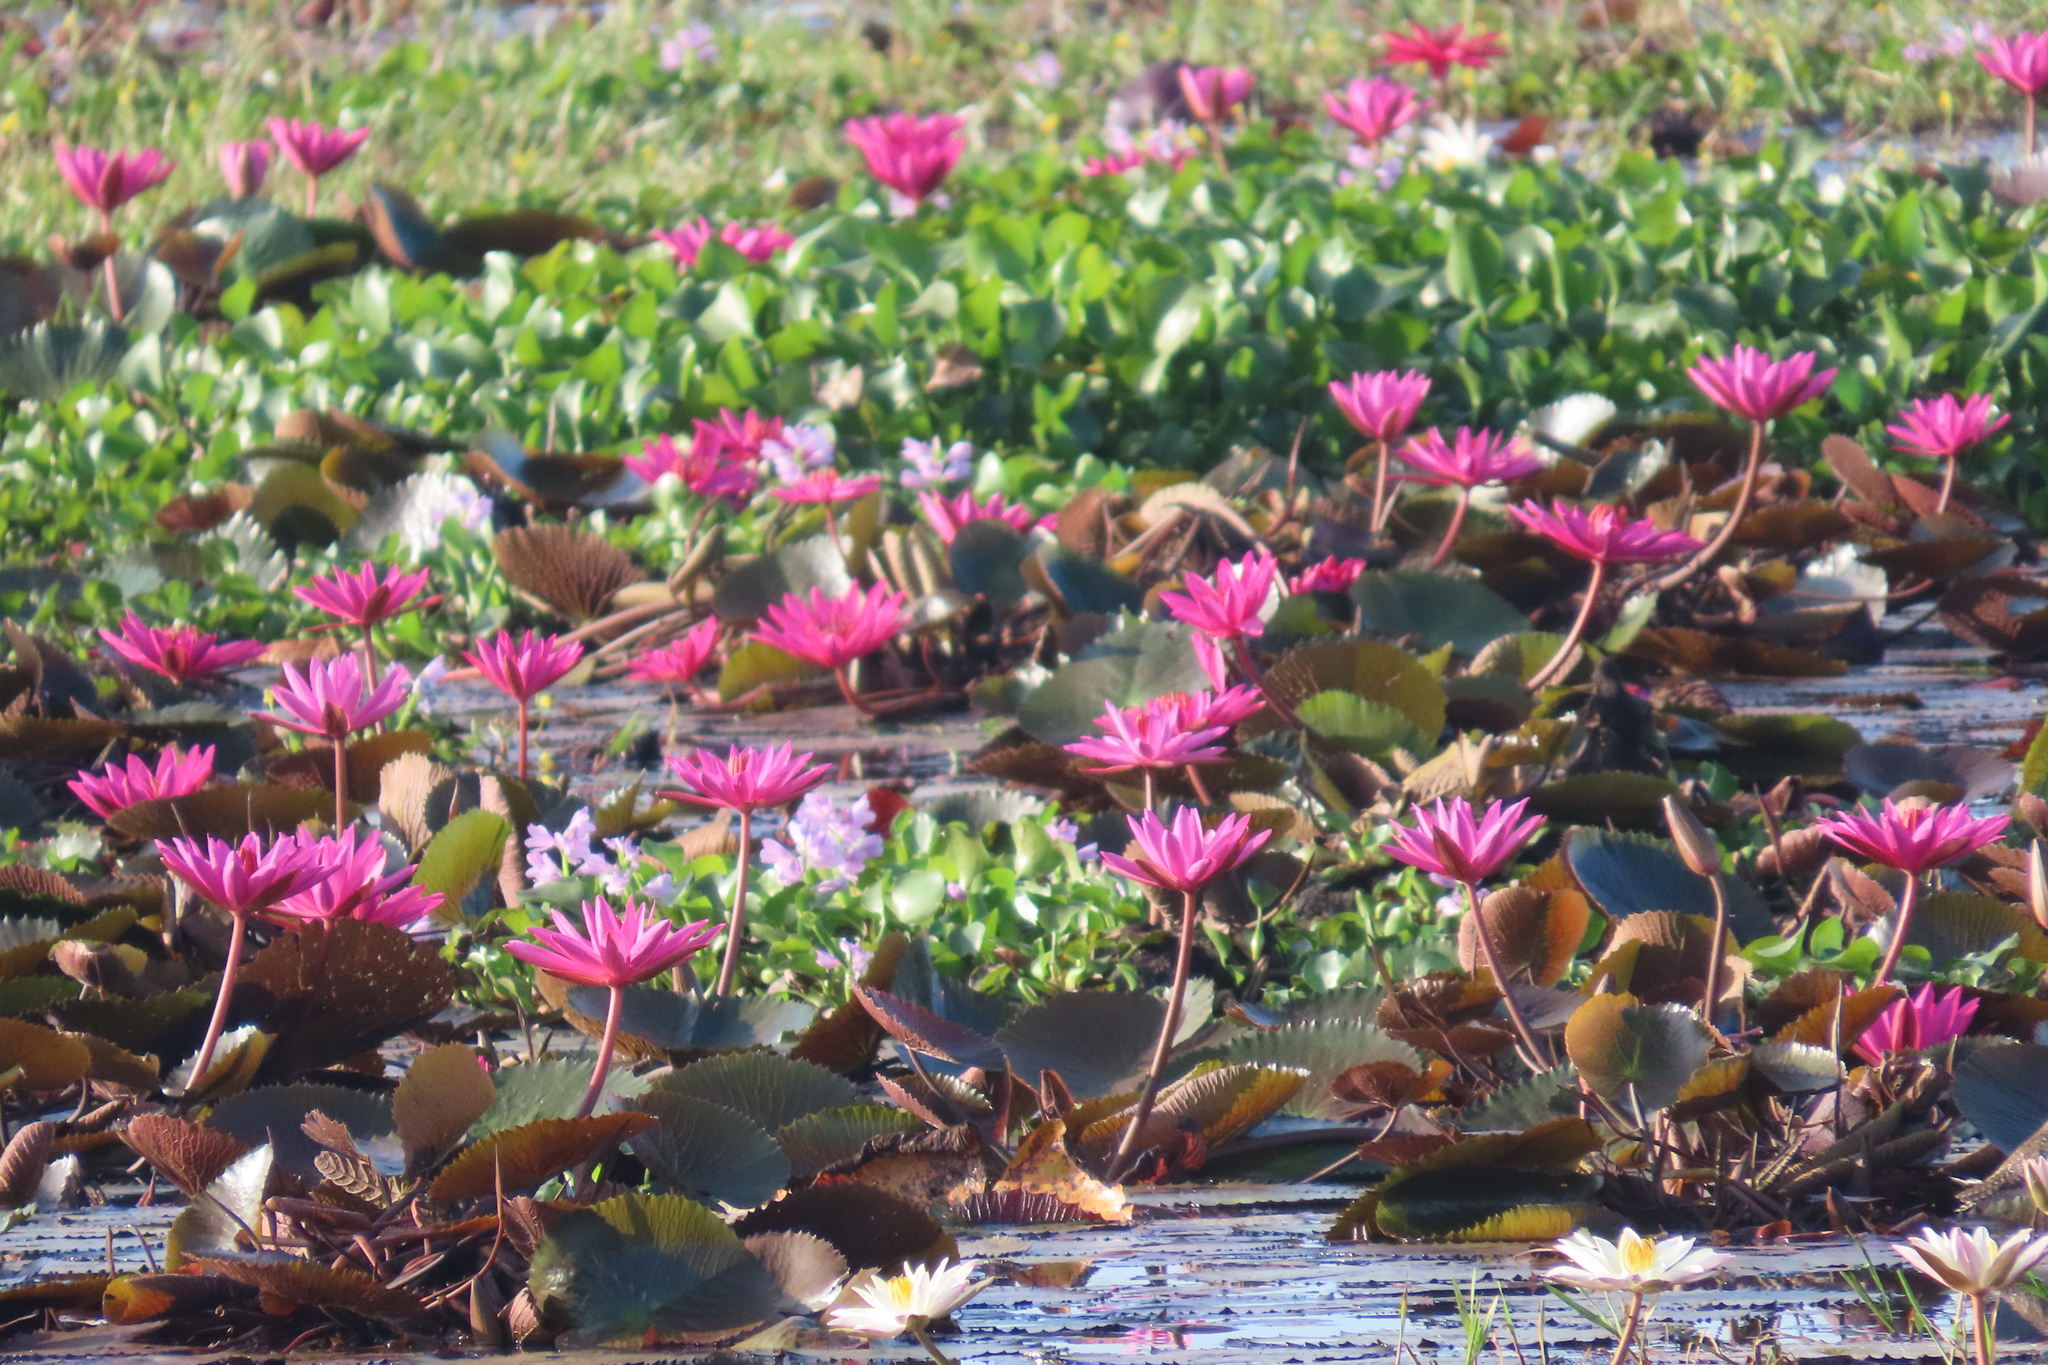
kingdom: Plantae
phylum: Tracheophyta
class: Magnoliopsida
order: Nymphaeales
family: Nymphaeaceae
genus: Nymphaea
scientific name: Nymphaea rubra
